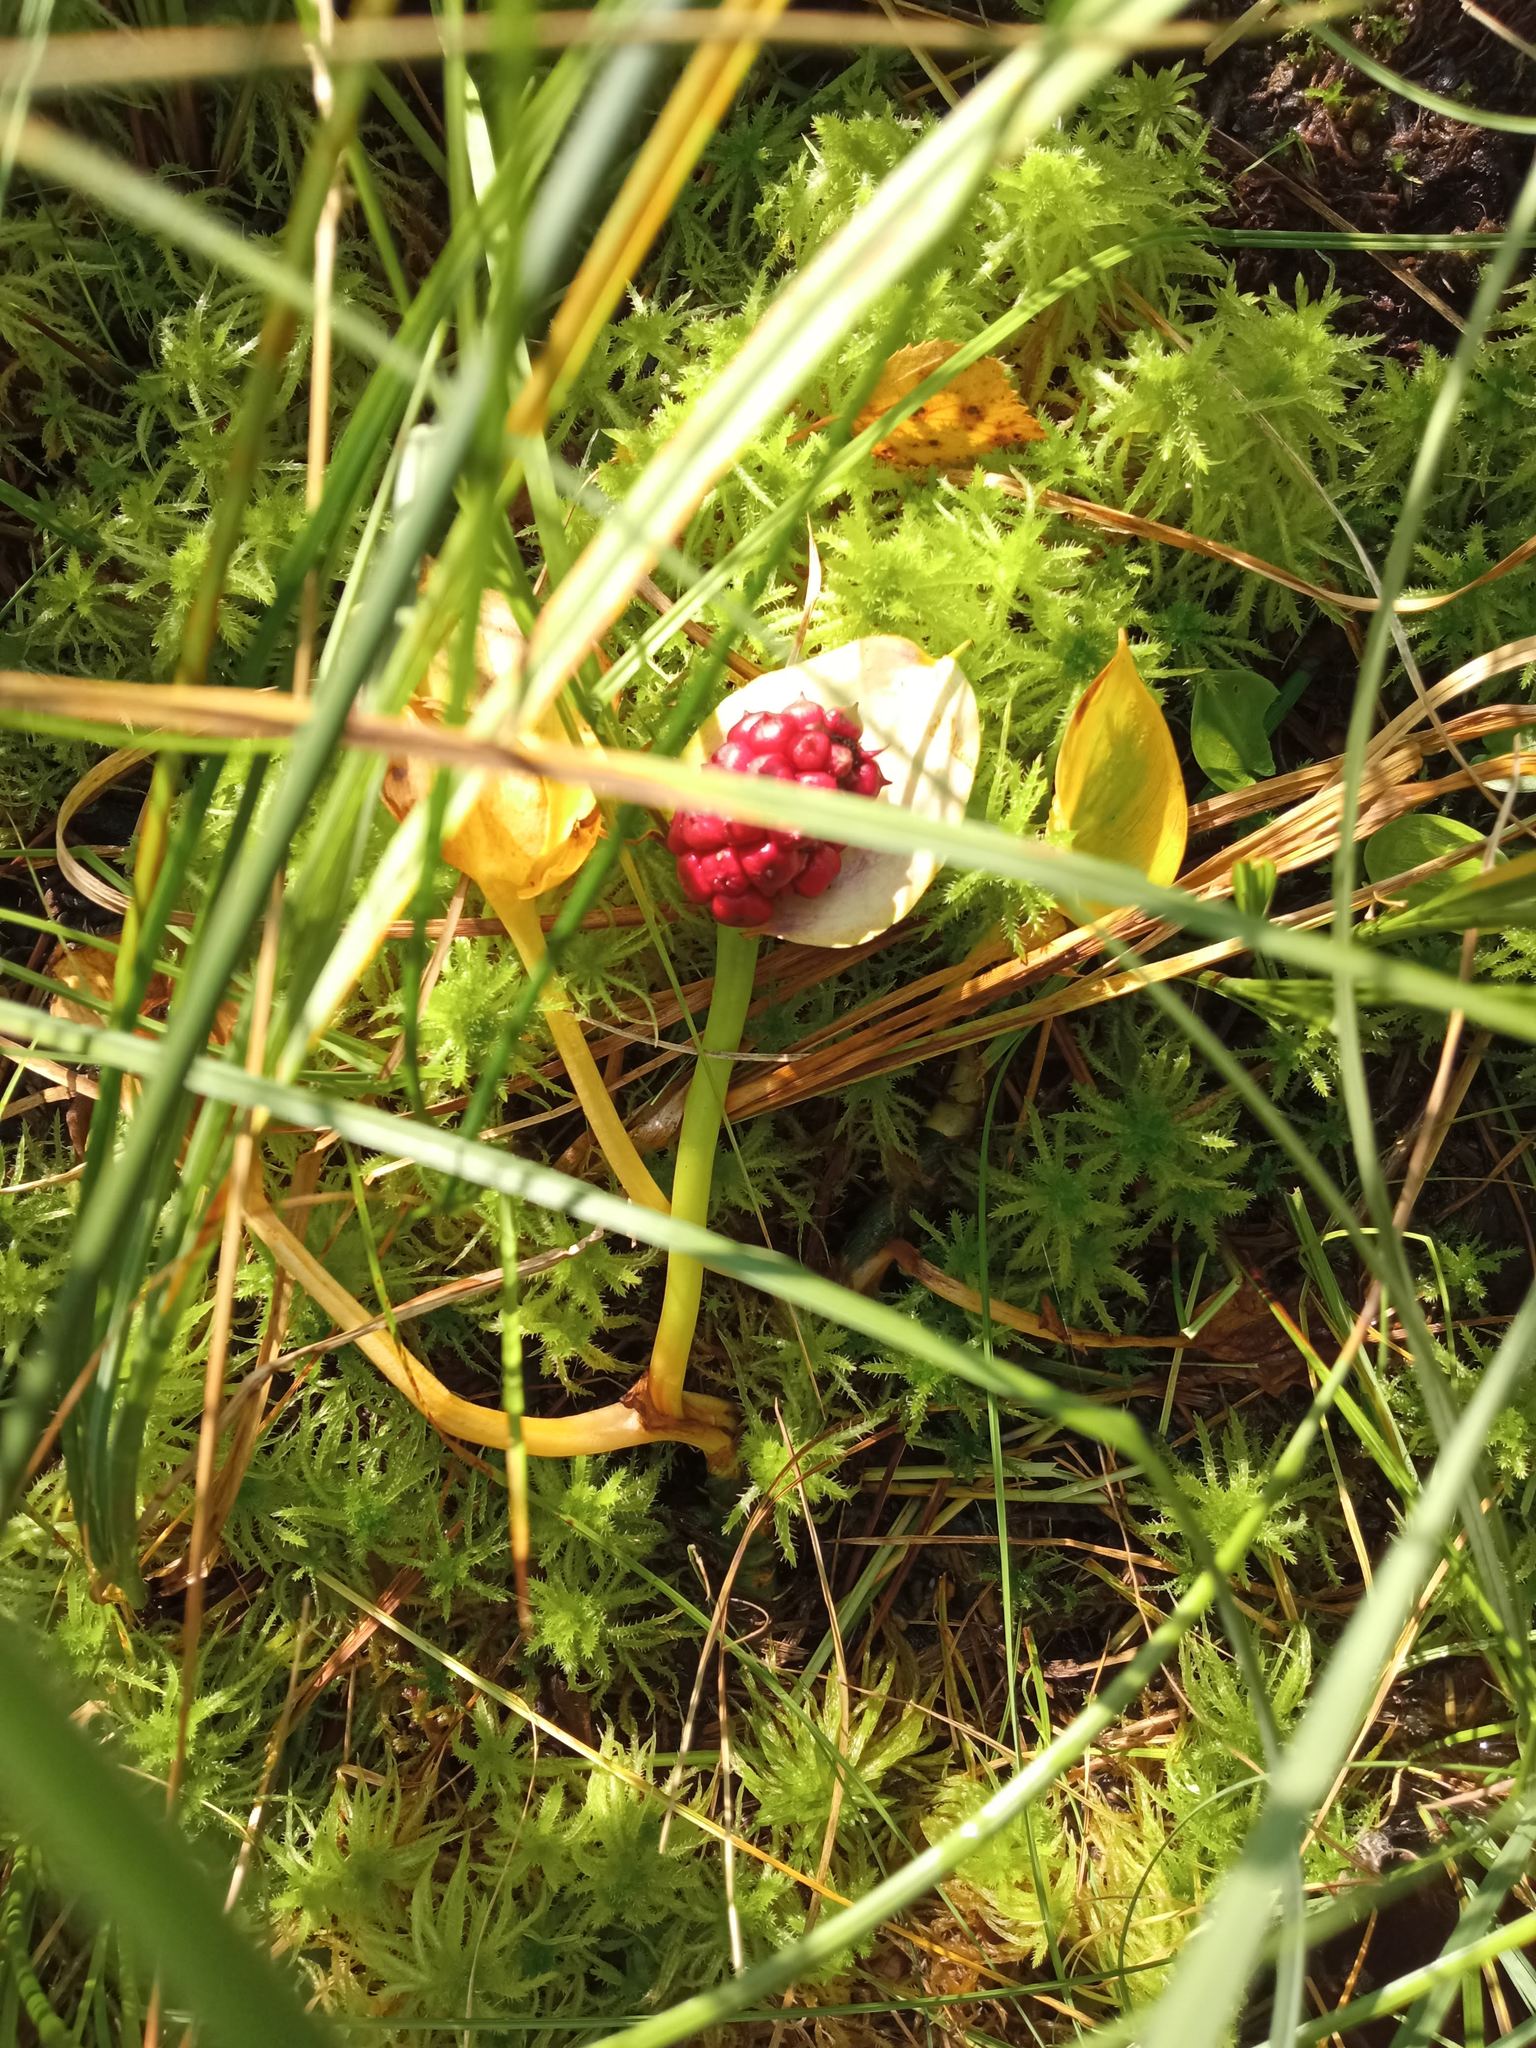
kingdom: Plantae
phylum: Tracheophyta
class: Liliopsida
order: Alismatales
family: Araceae
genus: Calla
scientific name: Calla palustris
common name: Bog arum
